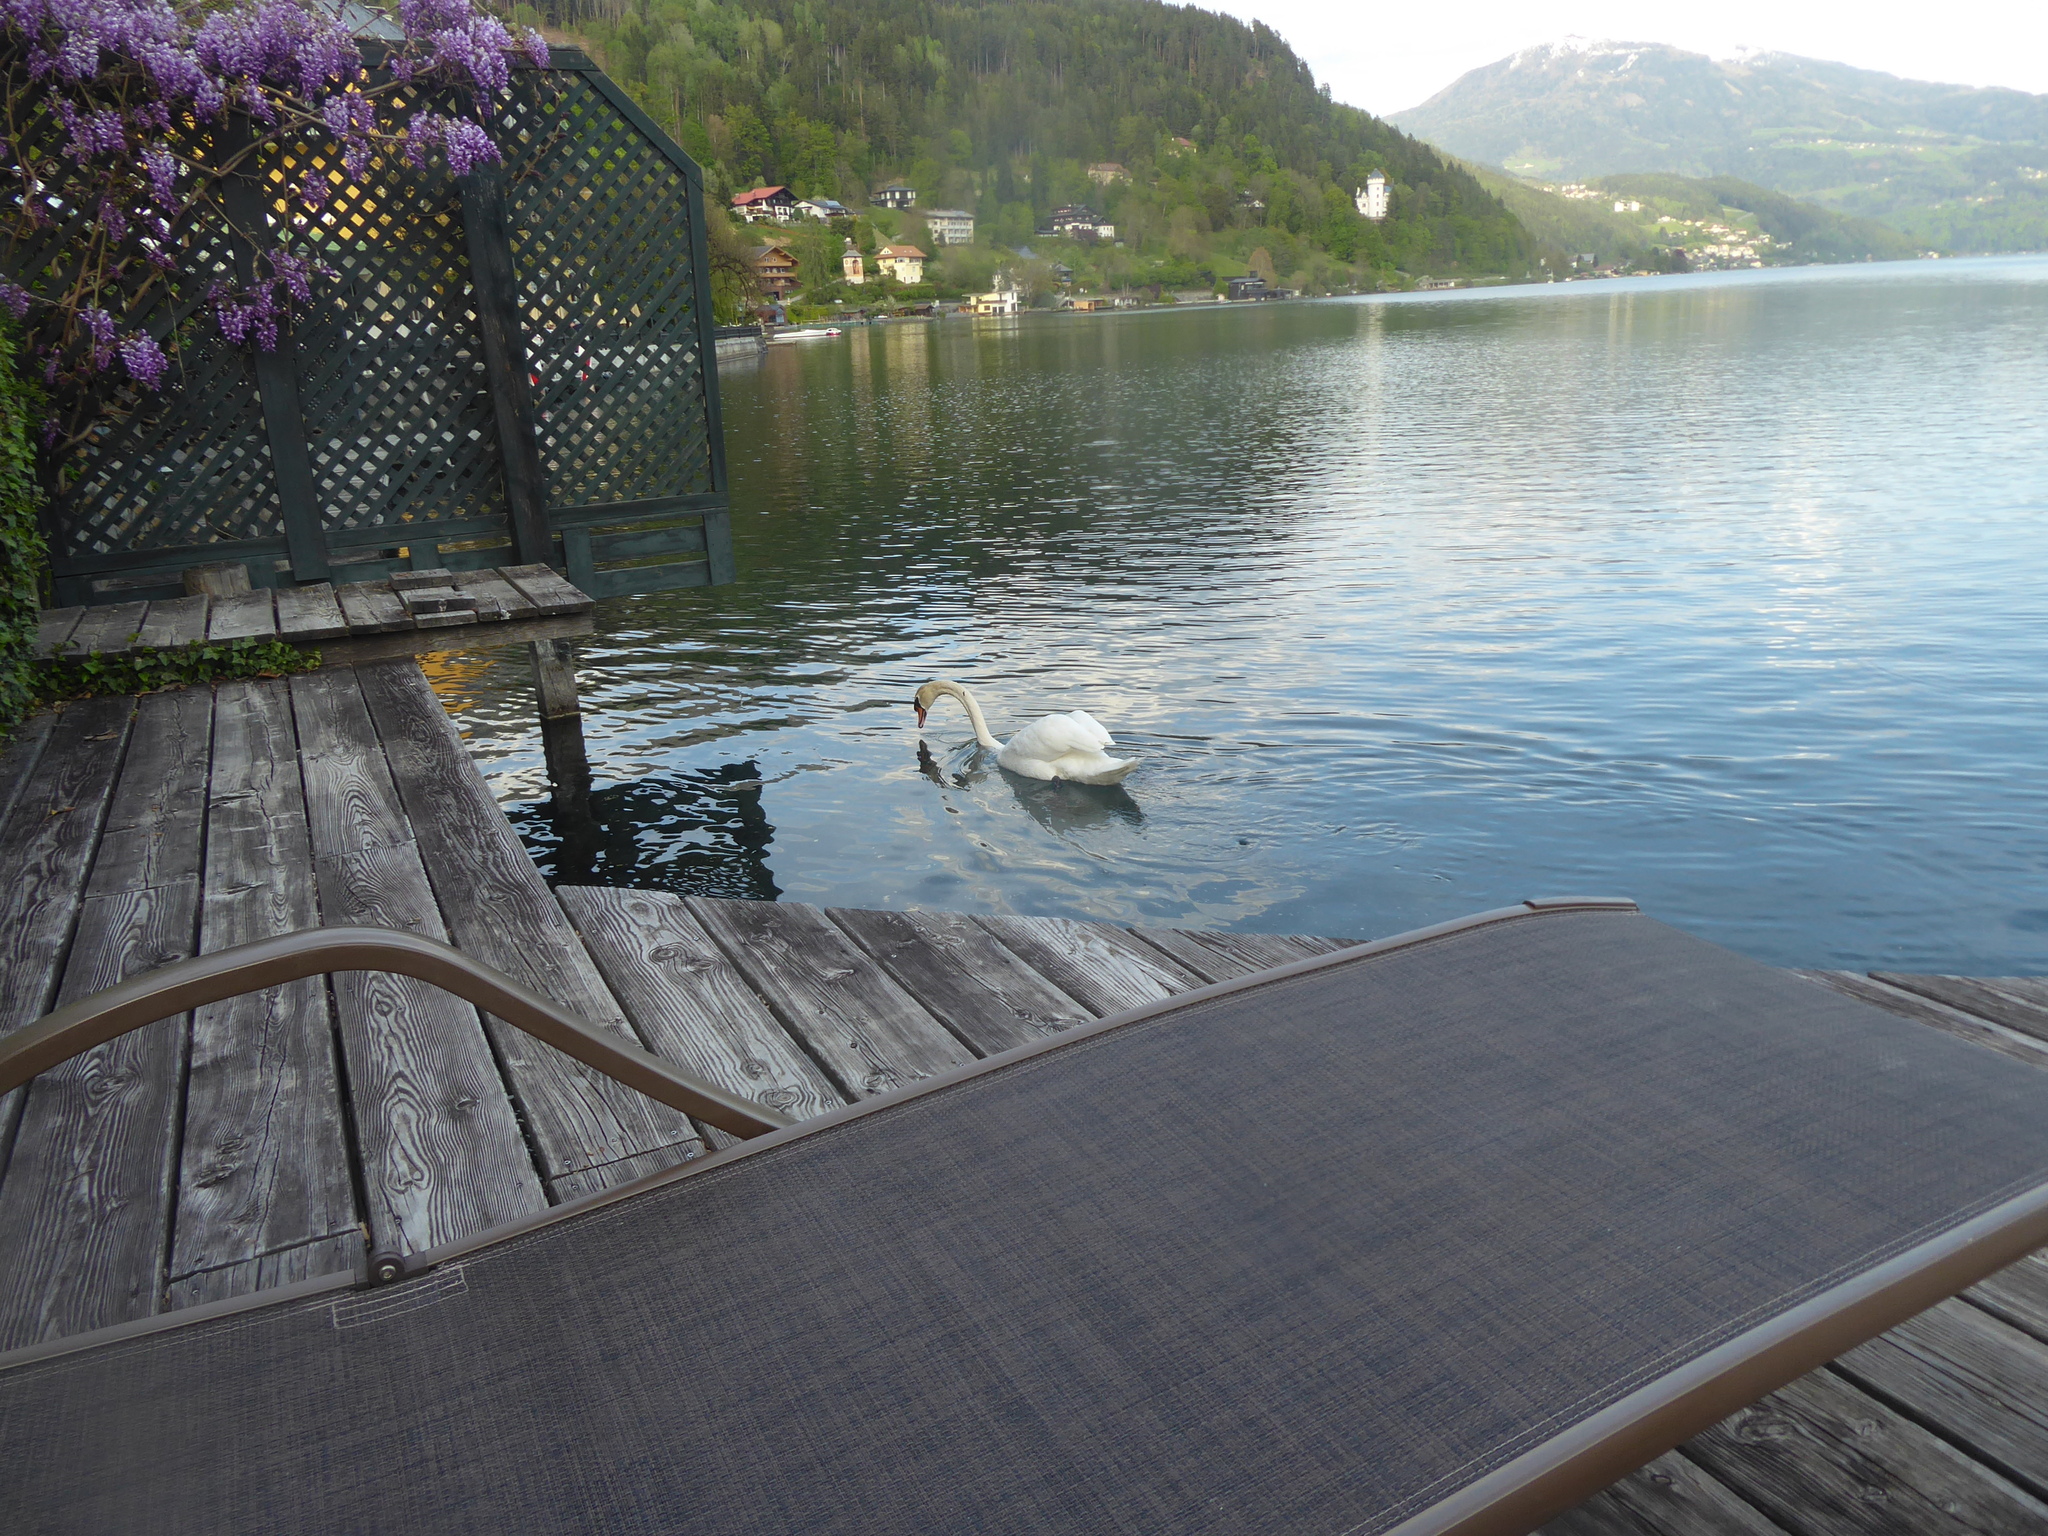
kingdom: Animalia
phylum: Chordata
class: Aves
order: Anseriformes
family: Anatidae
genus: Cygnus
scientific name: Cygnus olor
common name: Mute swan
